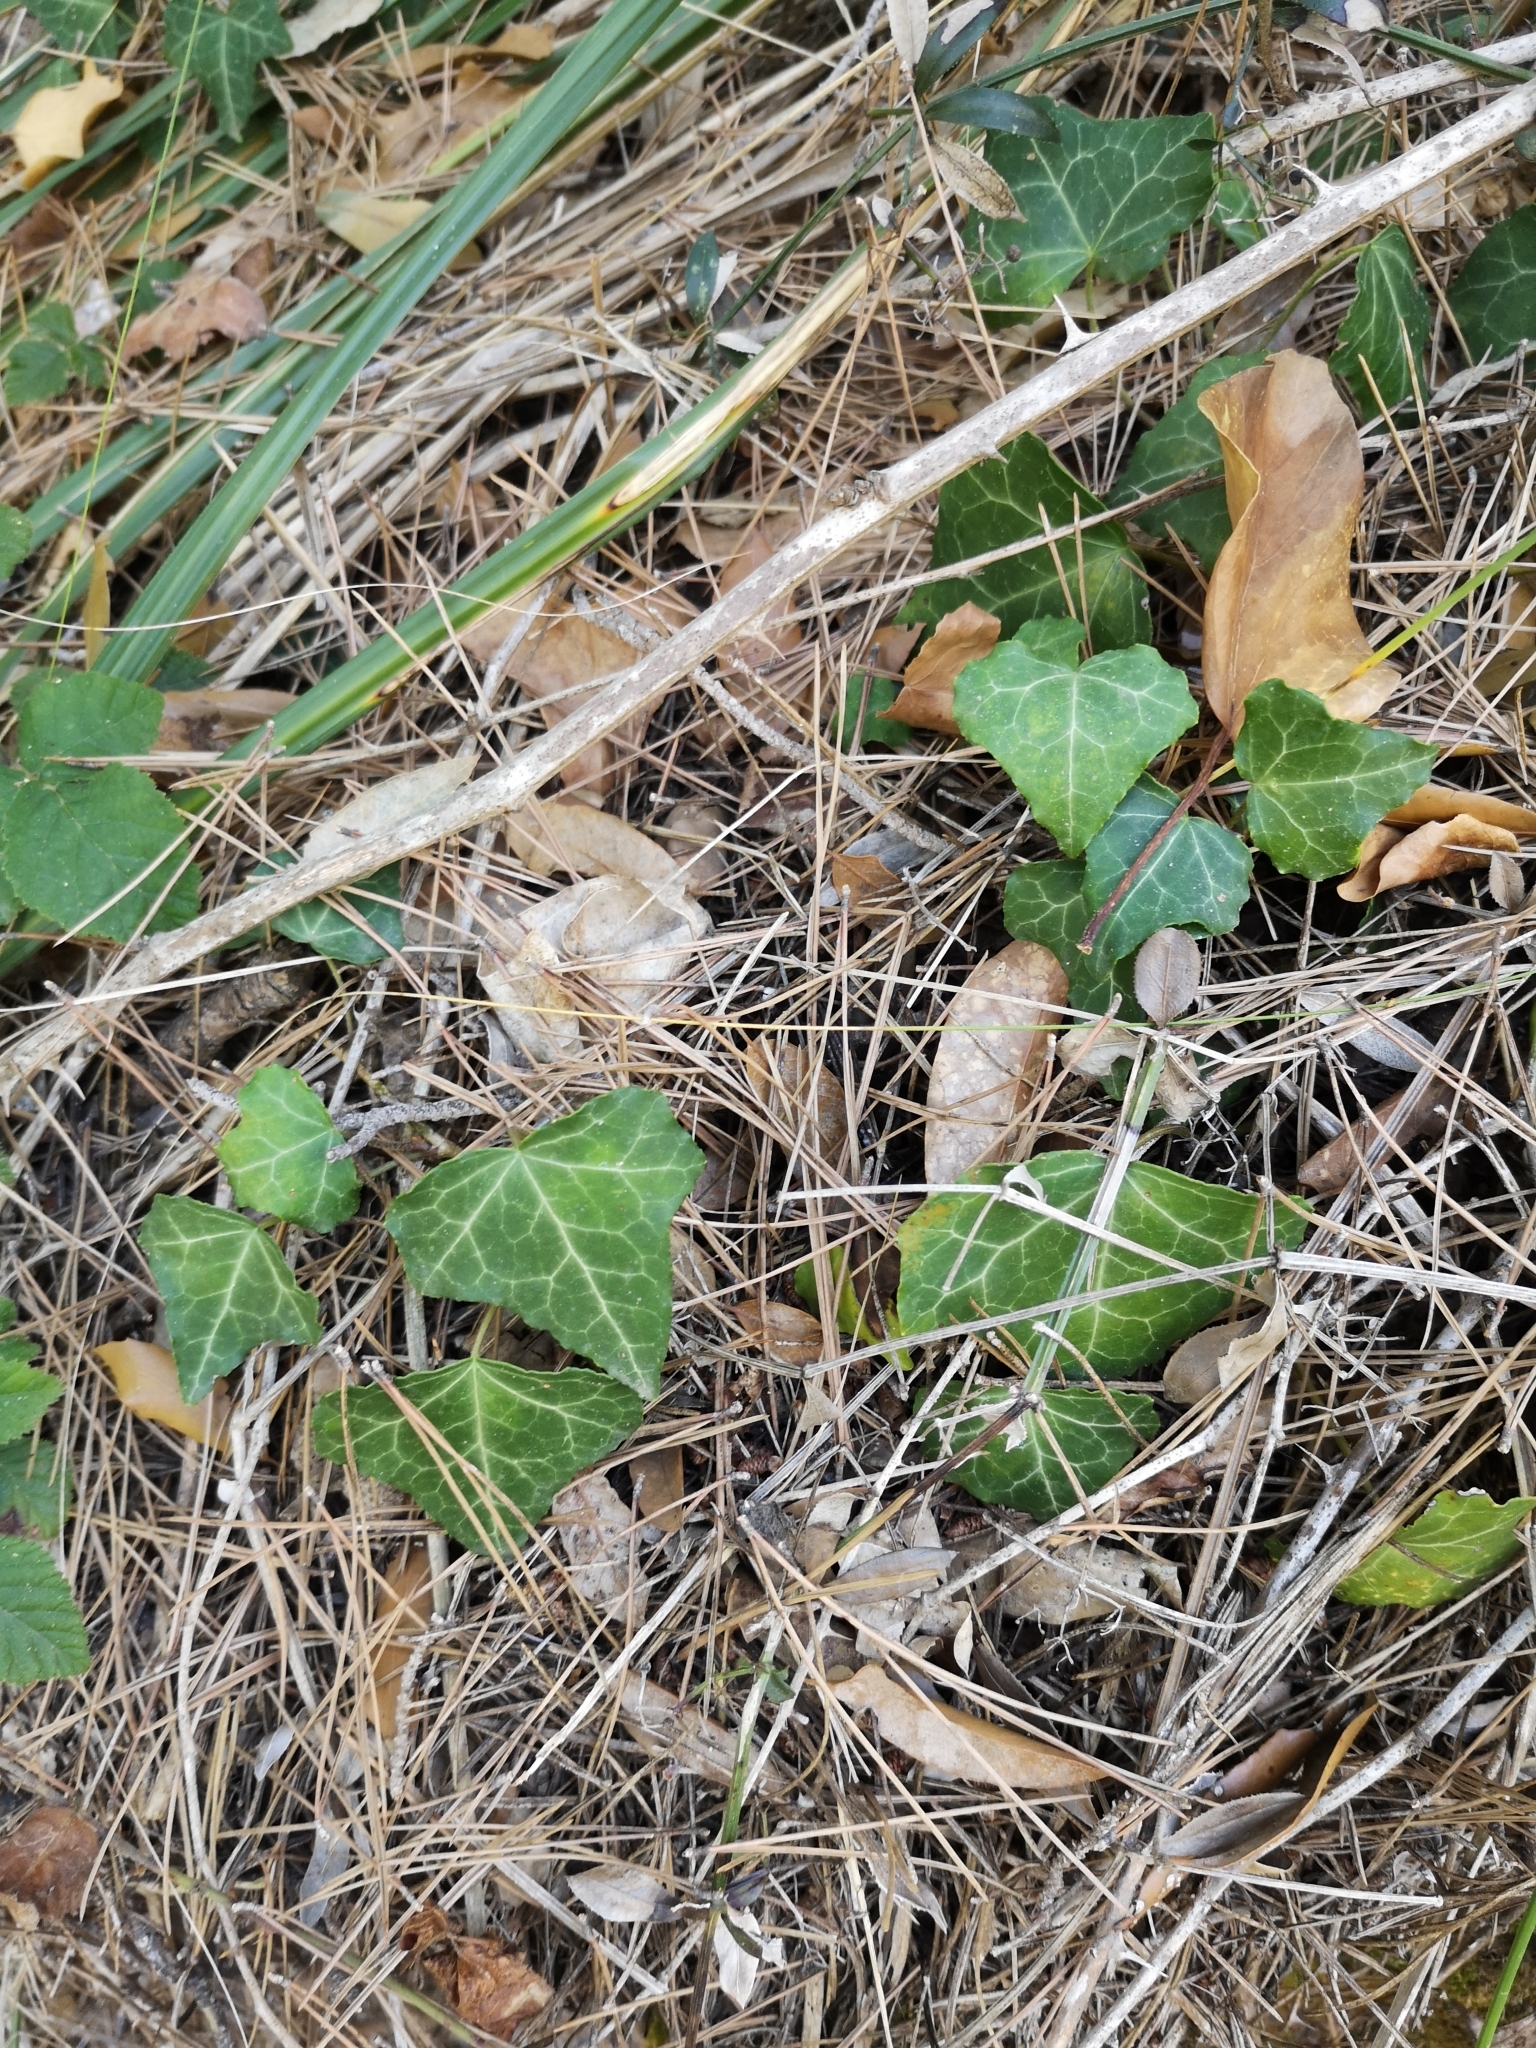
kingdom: Plantae
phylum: Tracheophyta
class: Magnoliopsida
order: Apiales
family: Araliaceae
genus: Hedera
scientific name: Hedera helix
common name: Ivy
